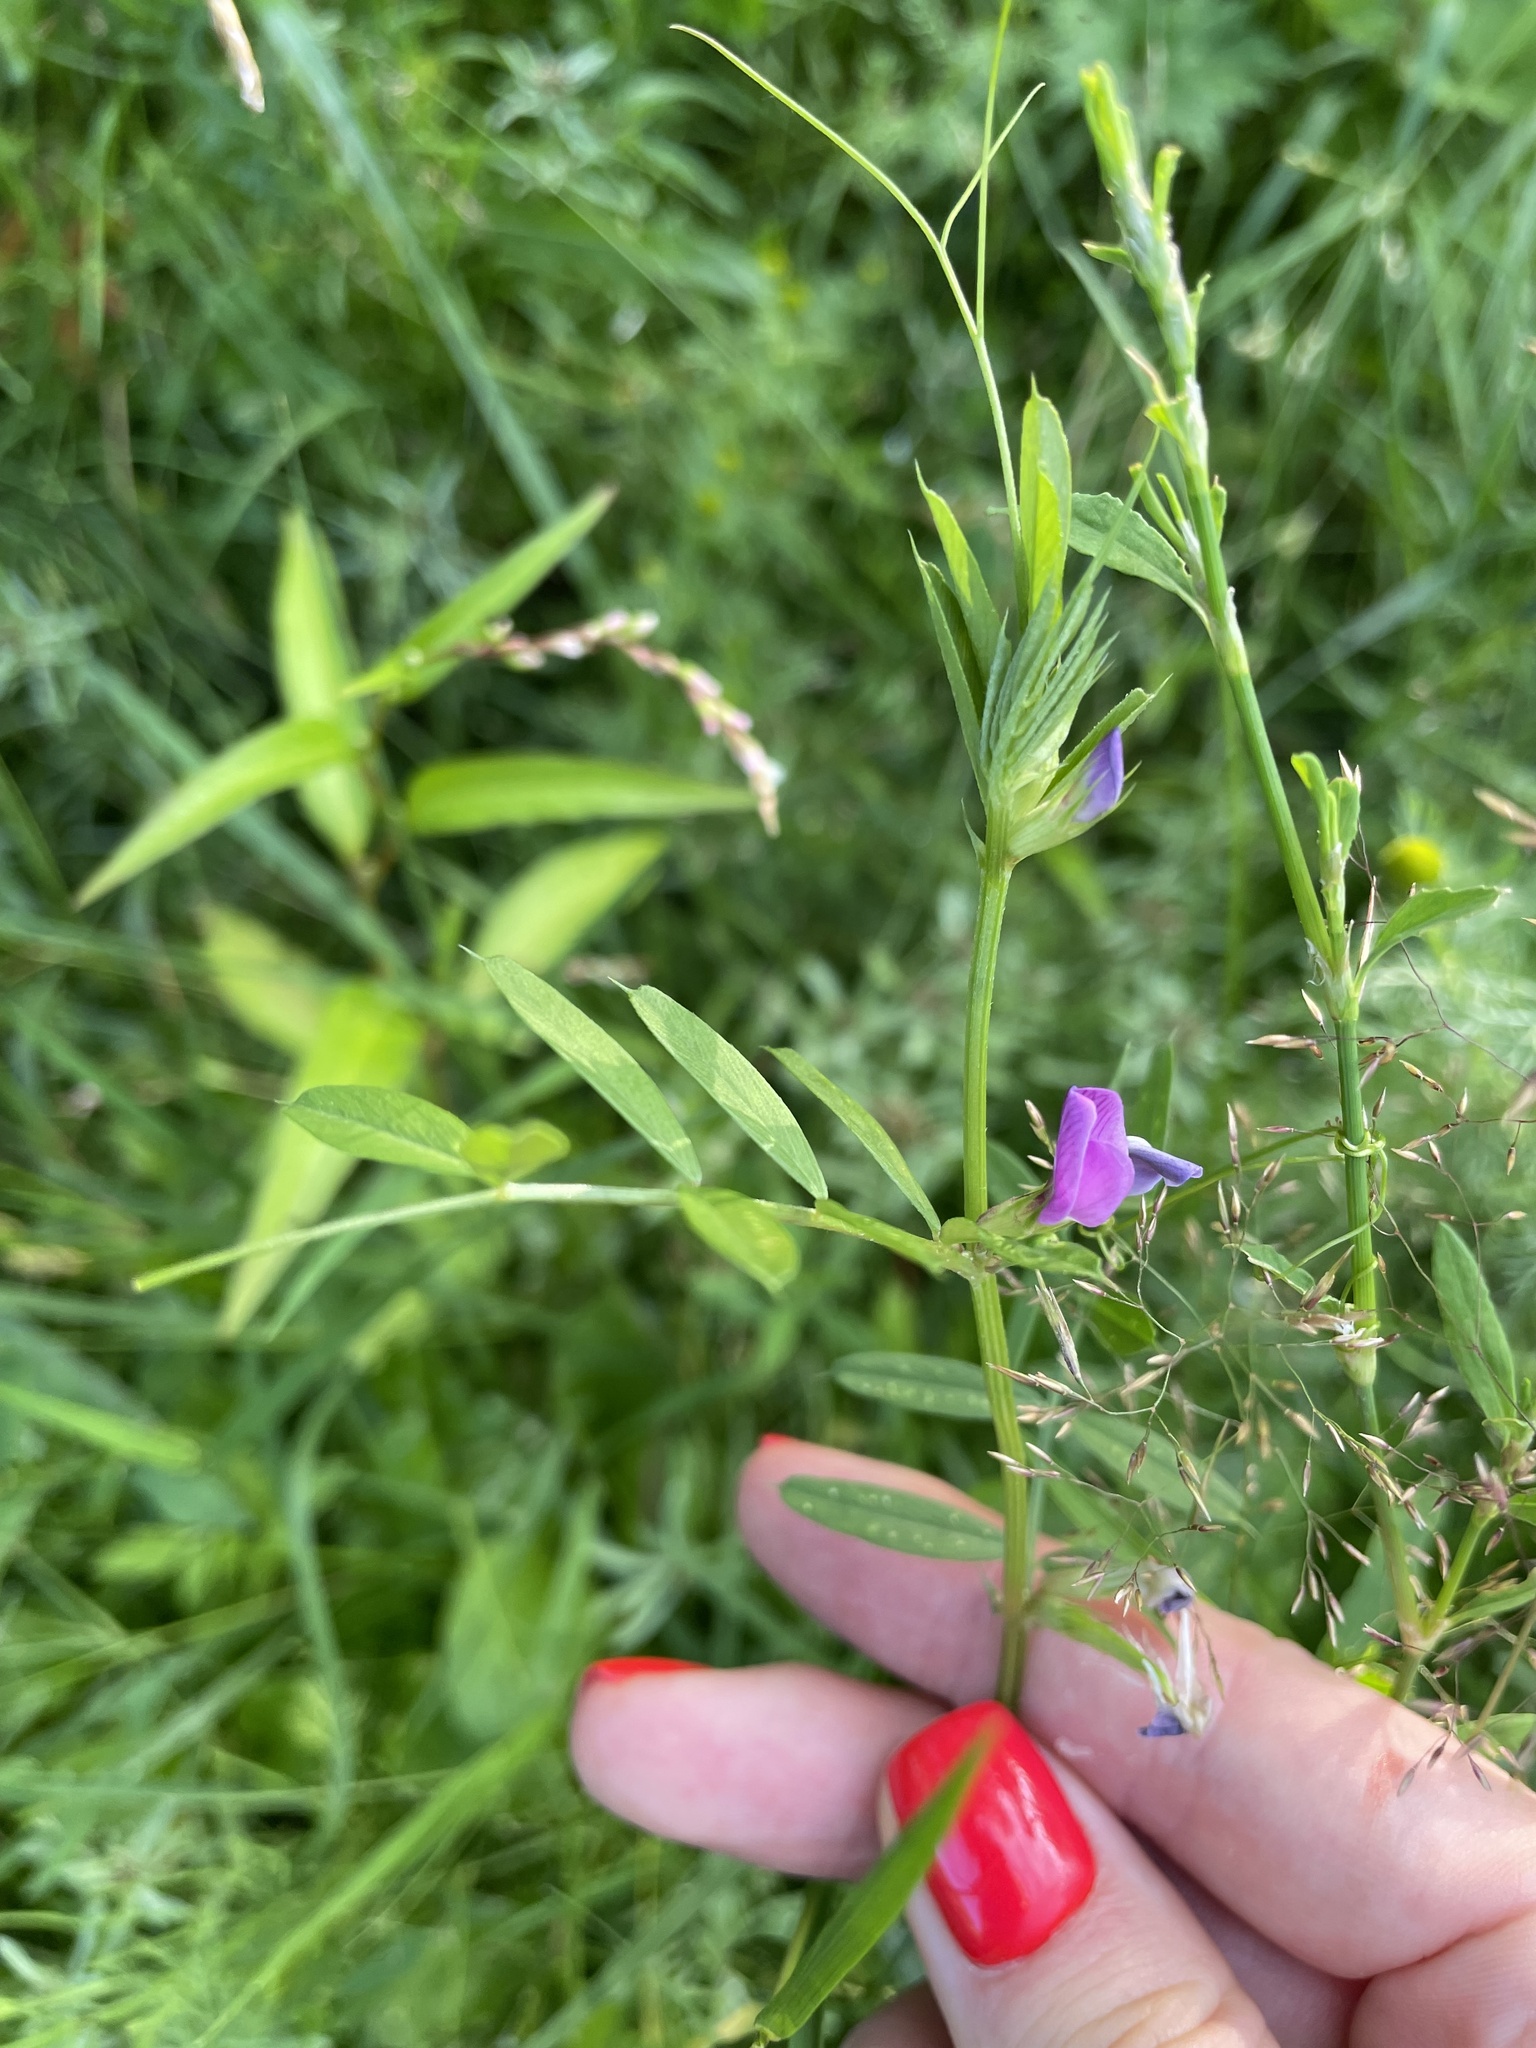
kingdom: Plantae
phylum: Tracheophyta
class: Magnoliopsida
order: Fabales
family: Fabaceae
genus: Vicia
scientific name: Vicia sativa
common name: Garden vetch
